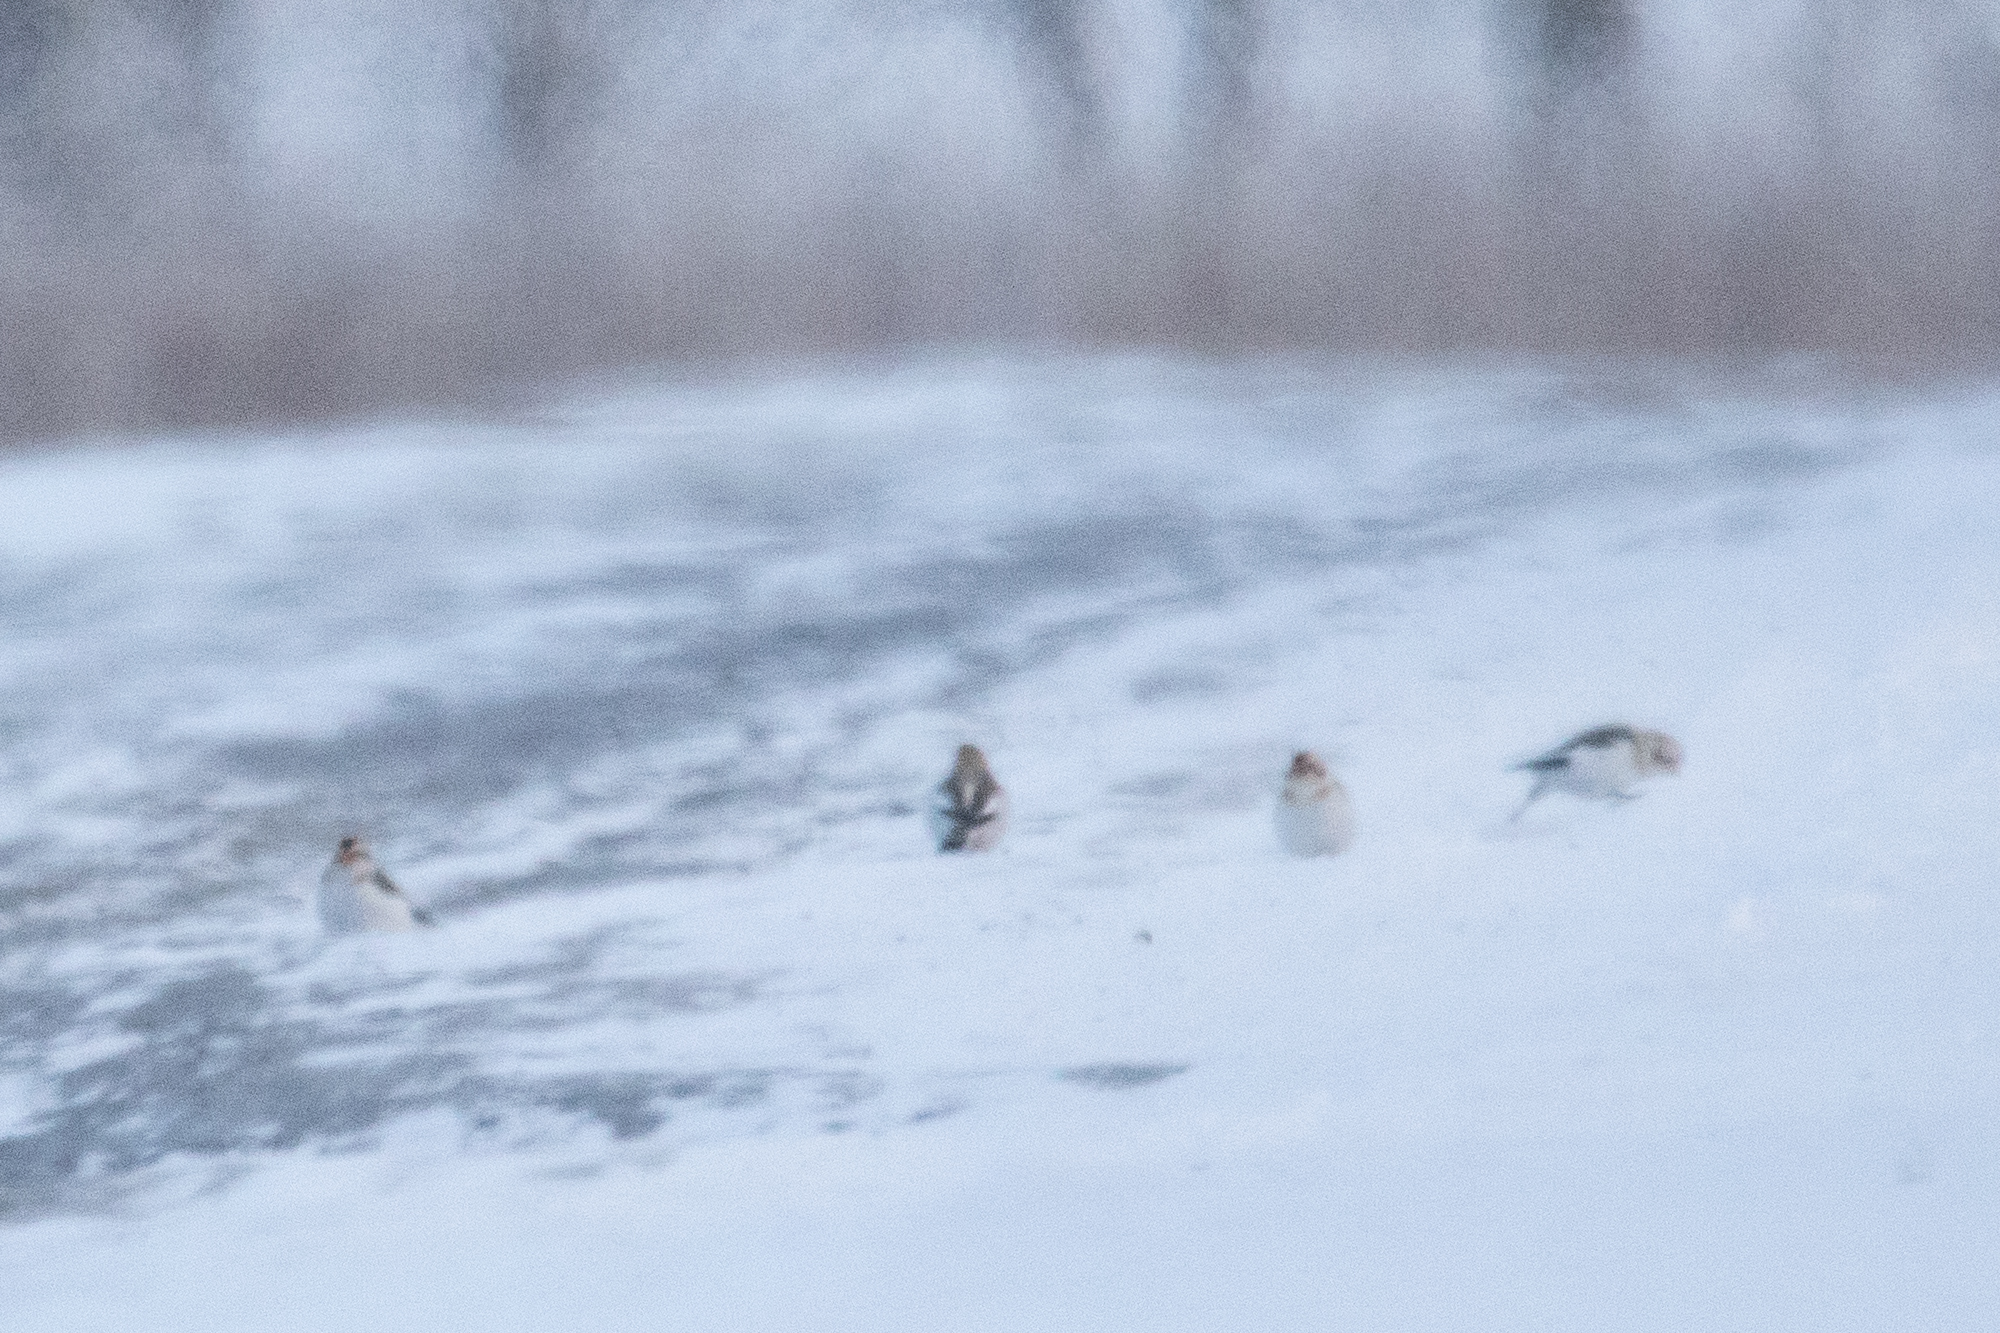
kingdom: Animalia
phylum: Chordata
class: Aves
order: Passeriformes
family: Calcariidae
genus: Plectrophenax
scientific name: Plectrophenax nivalis
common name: Snow bunting
